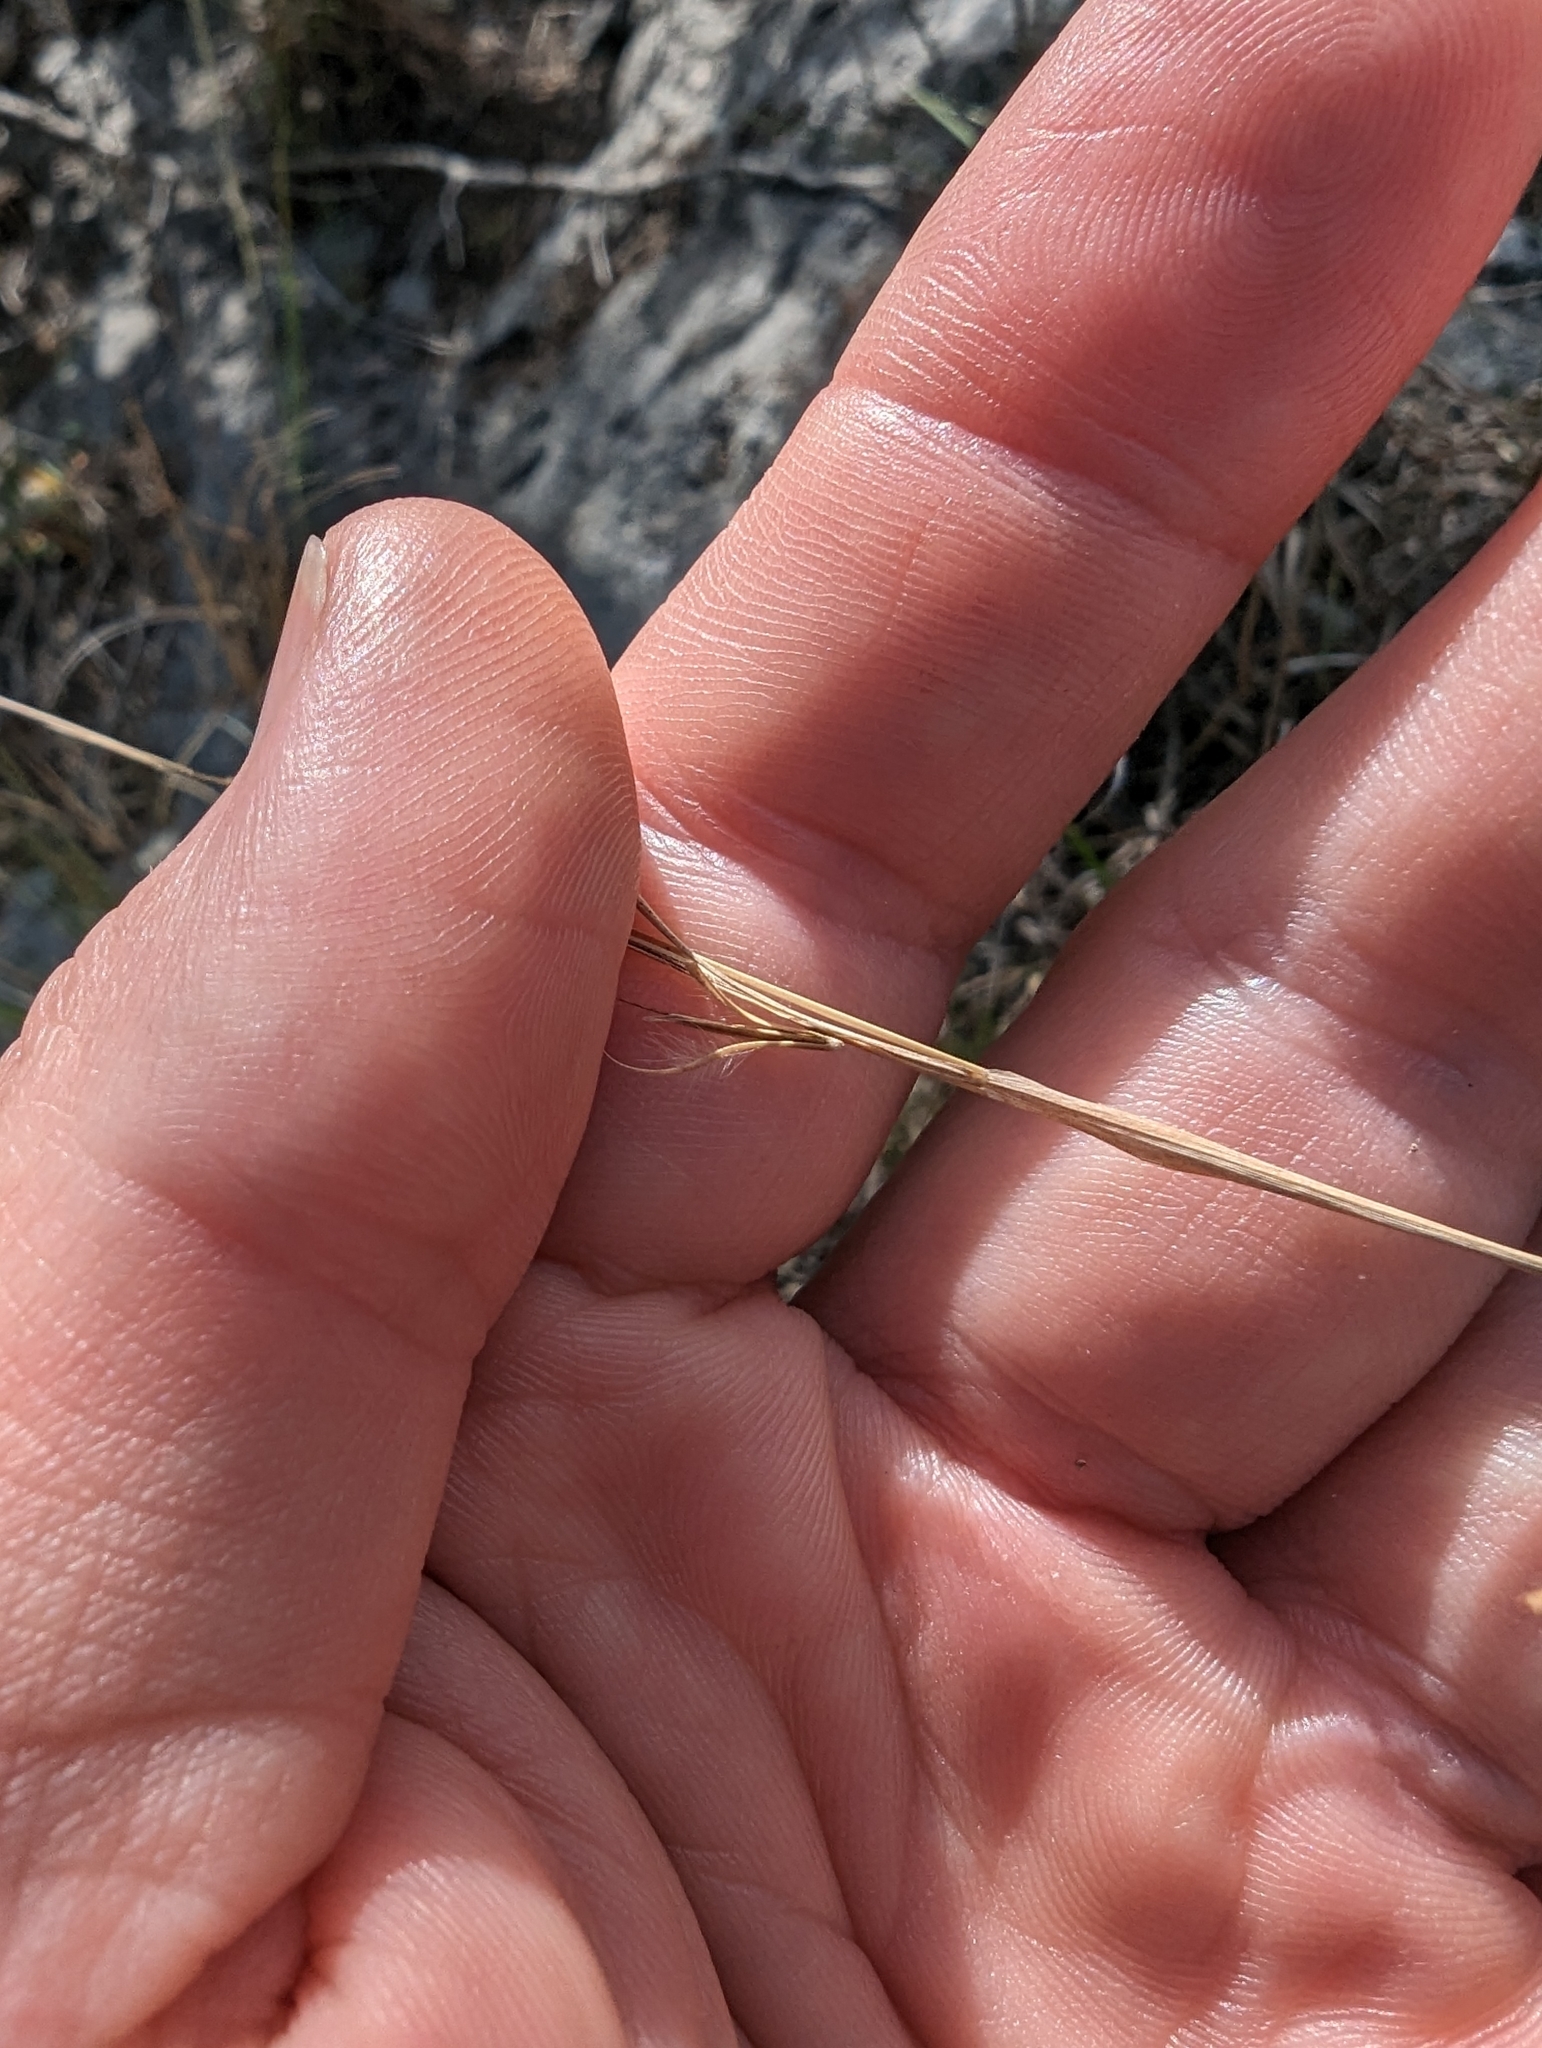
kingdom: Plantae
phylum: Tracheophyta
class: Liliopsida
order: Poales
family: Poaceae
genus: Schizachyrium
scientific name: Schizachyrium scoparium
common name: Little bluestem
